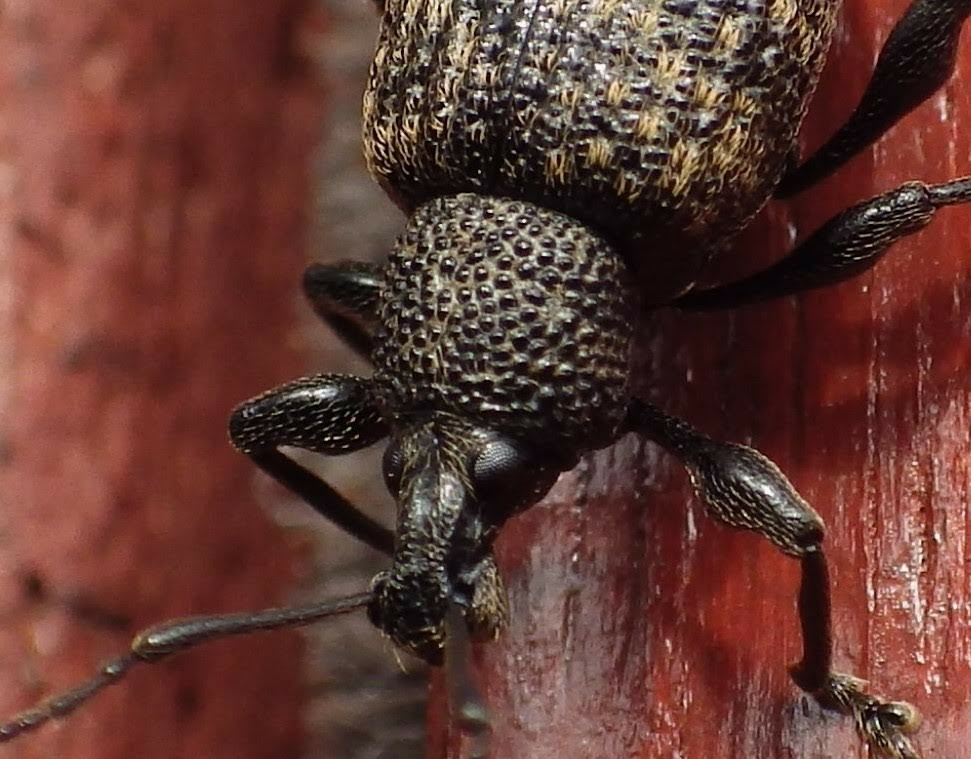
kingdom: Animalia
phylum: Arthropoda
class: Insecta
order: Coleoptera
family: Curculionidae
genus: Otiorhynchus
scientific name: Otiorhynchus sulcatus
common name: Black vine weevil
